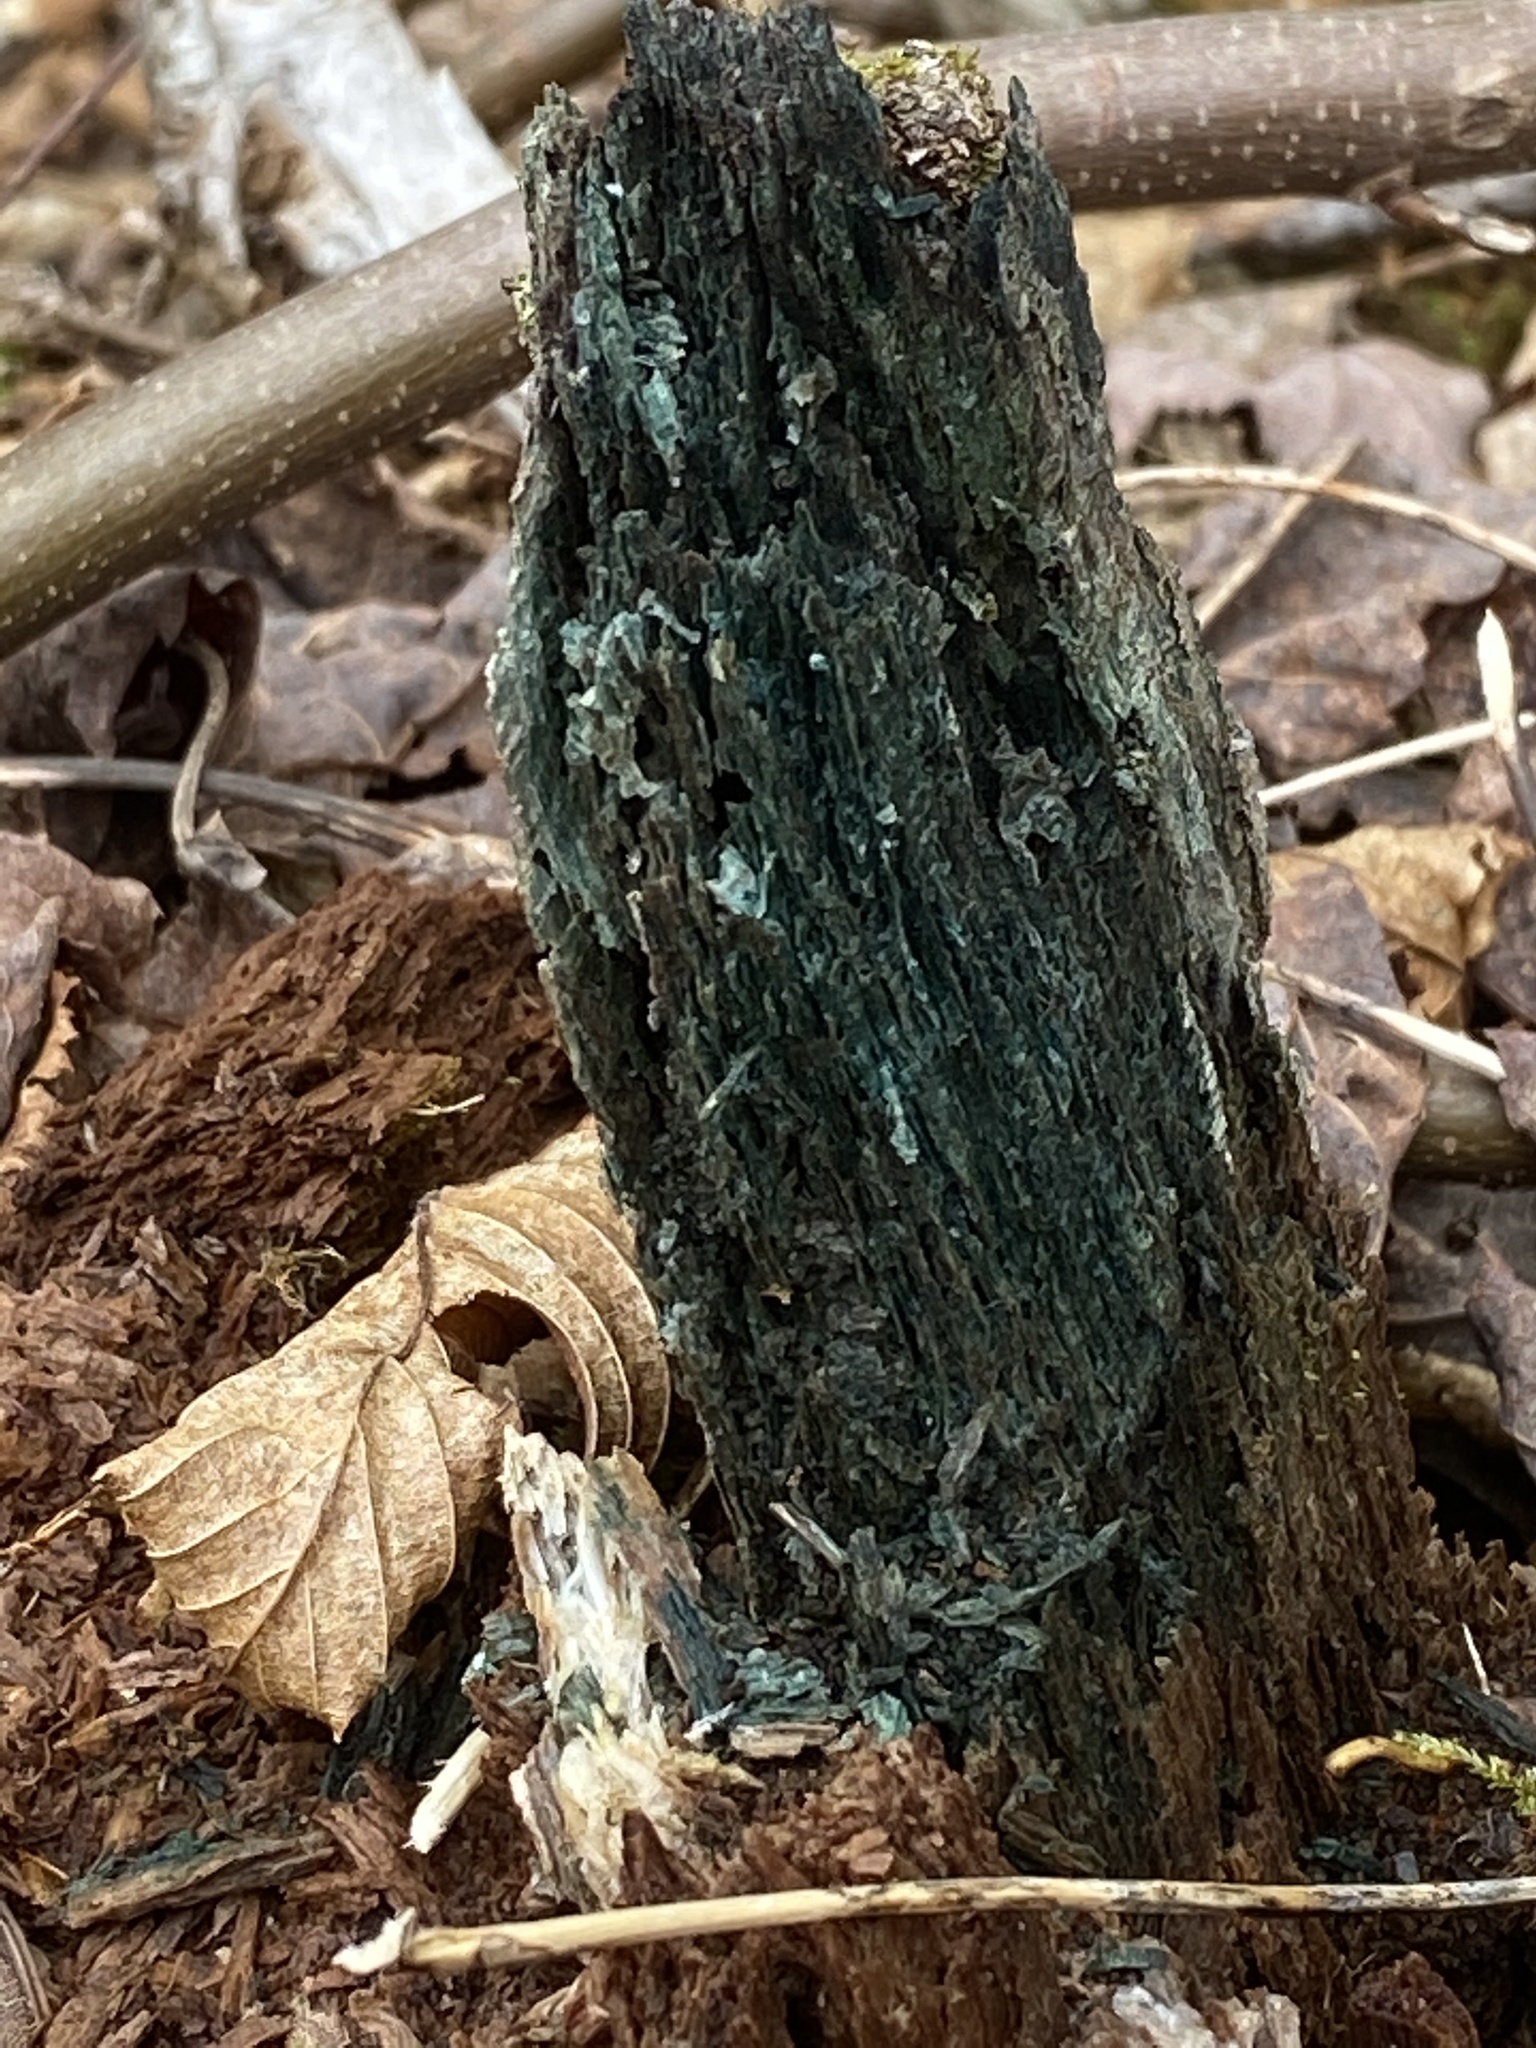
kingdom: Fungi
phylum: Ascomycota
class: Leotiomycetes
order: Helotiales
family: Chlorociboriaceae
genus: Chlorociboria
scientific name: Chlorociboria
